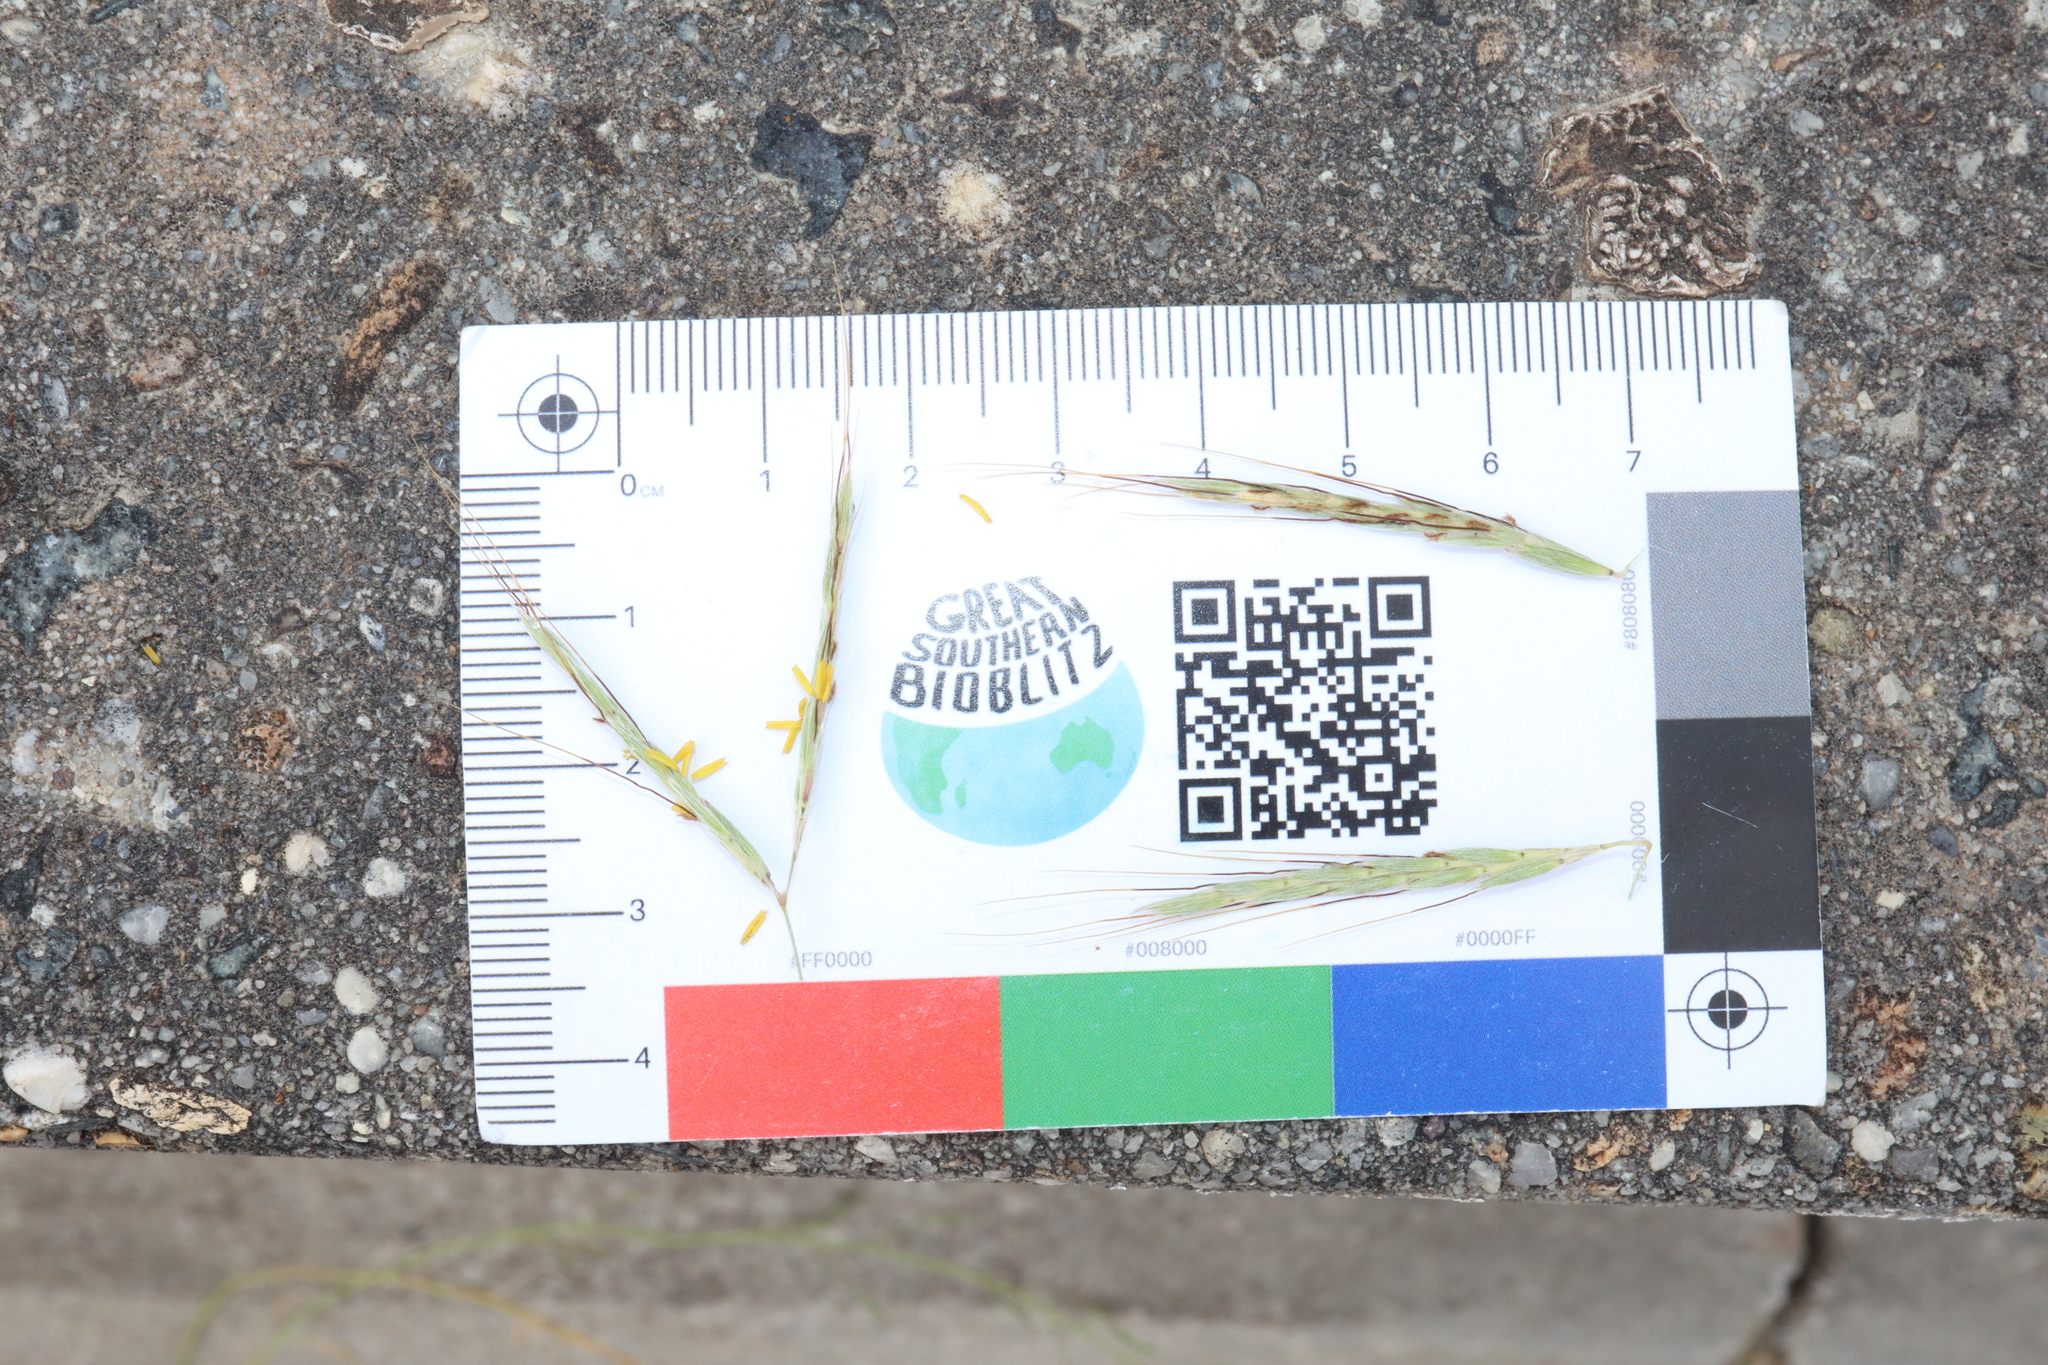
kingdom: Plantae
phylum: Tracheophyta
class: Liliopsida
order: Poales
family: Poaceae
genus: Hyparrhenia
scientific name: Hyparrhenia hirta
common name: Thatching grass
